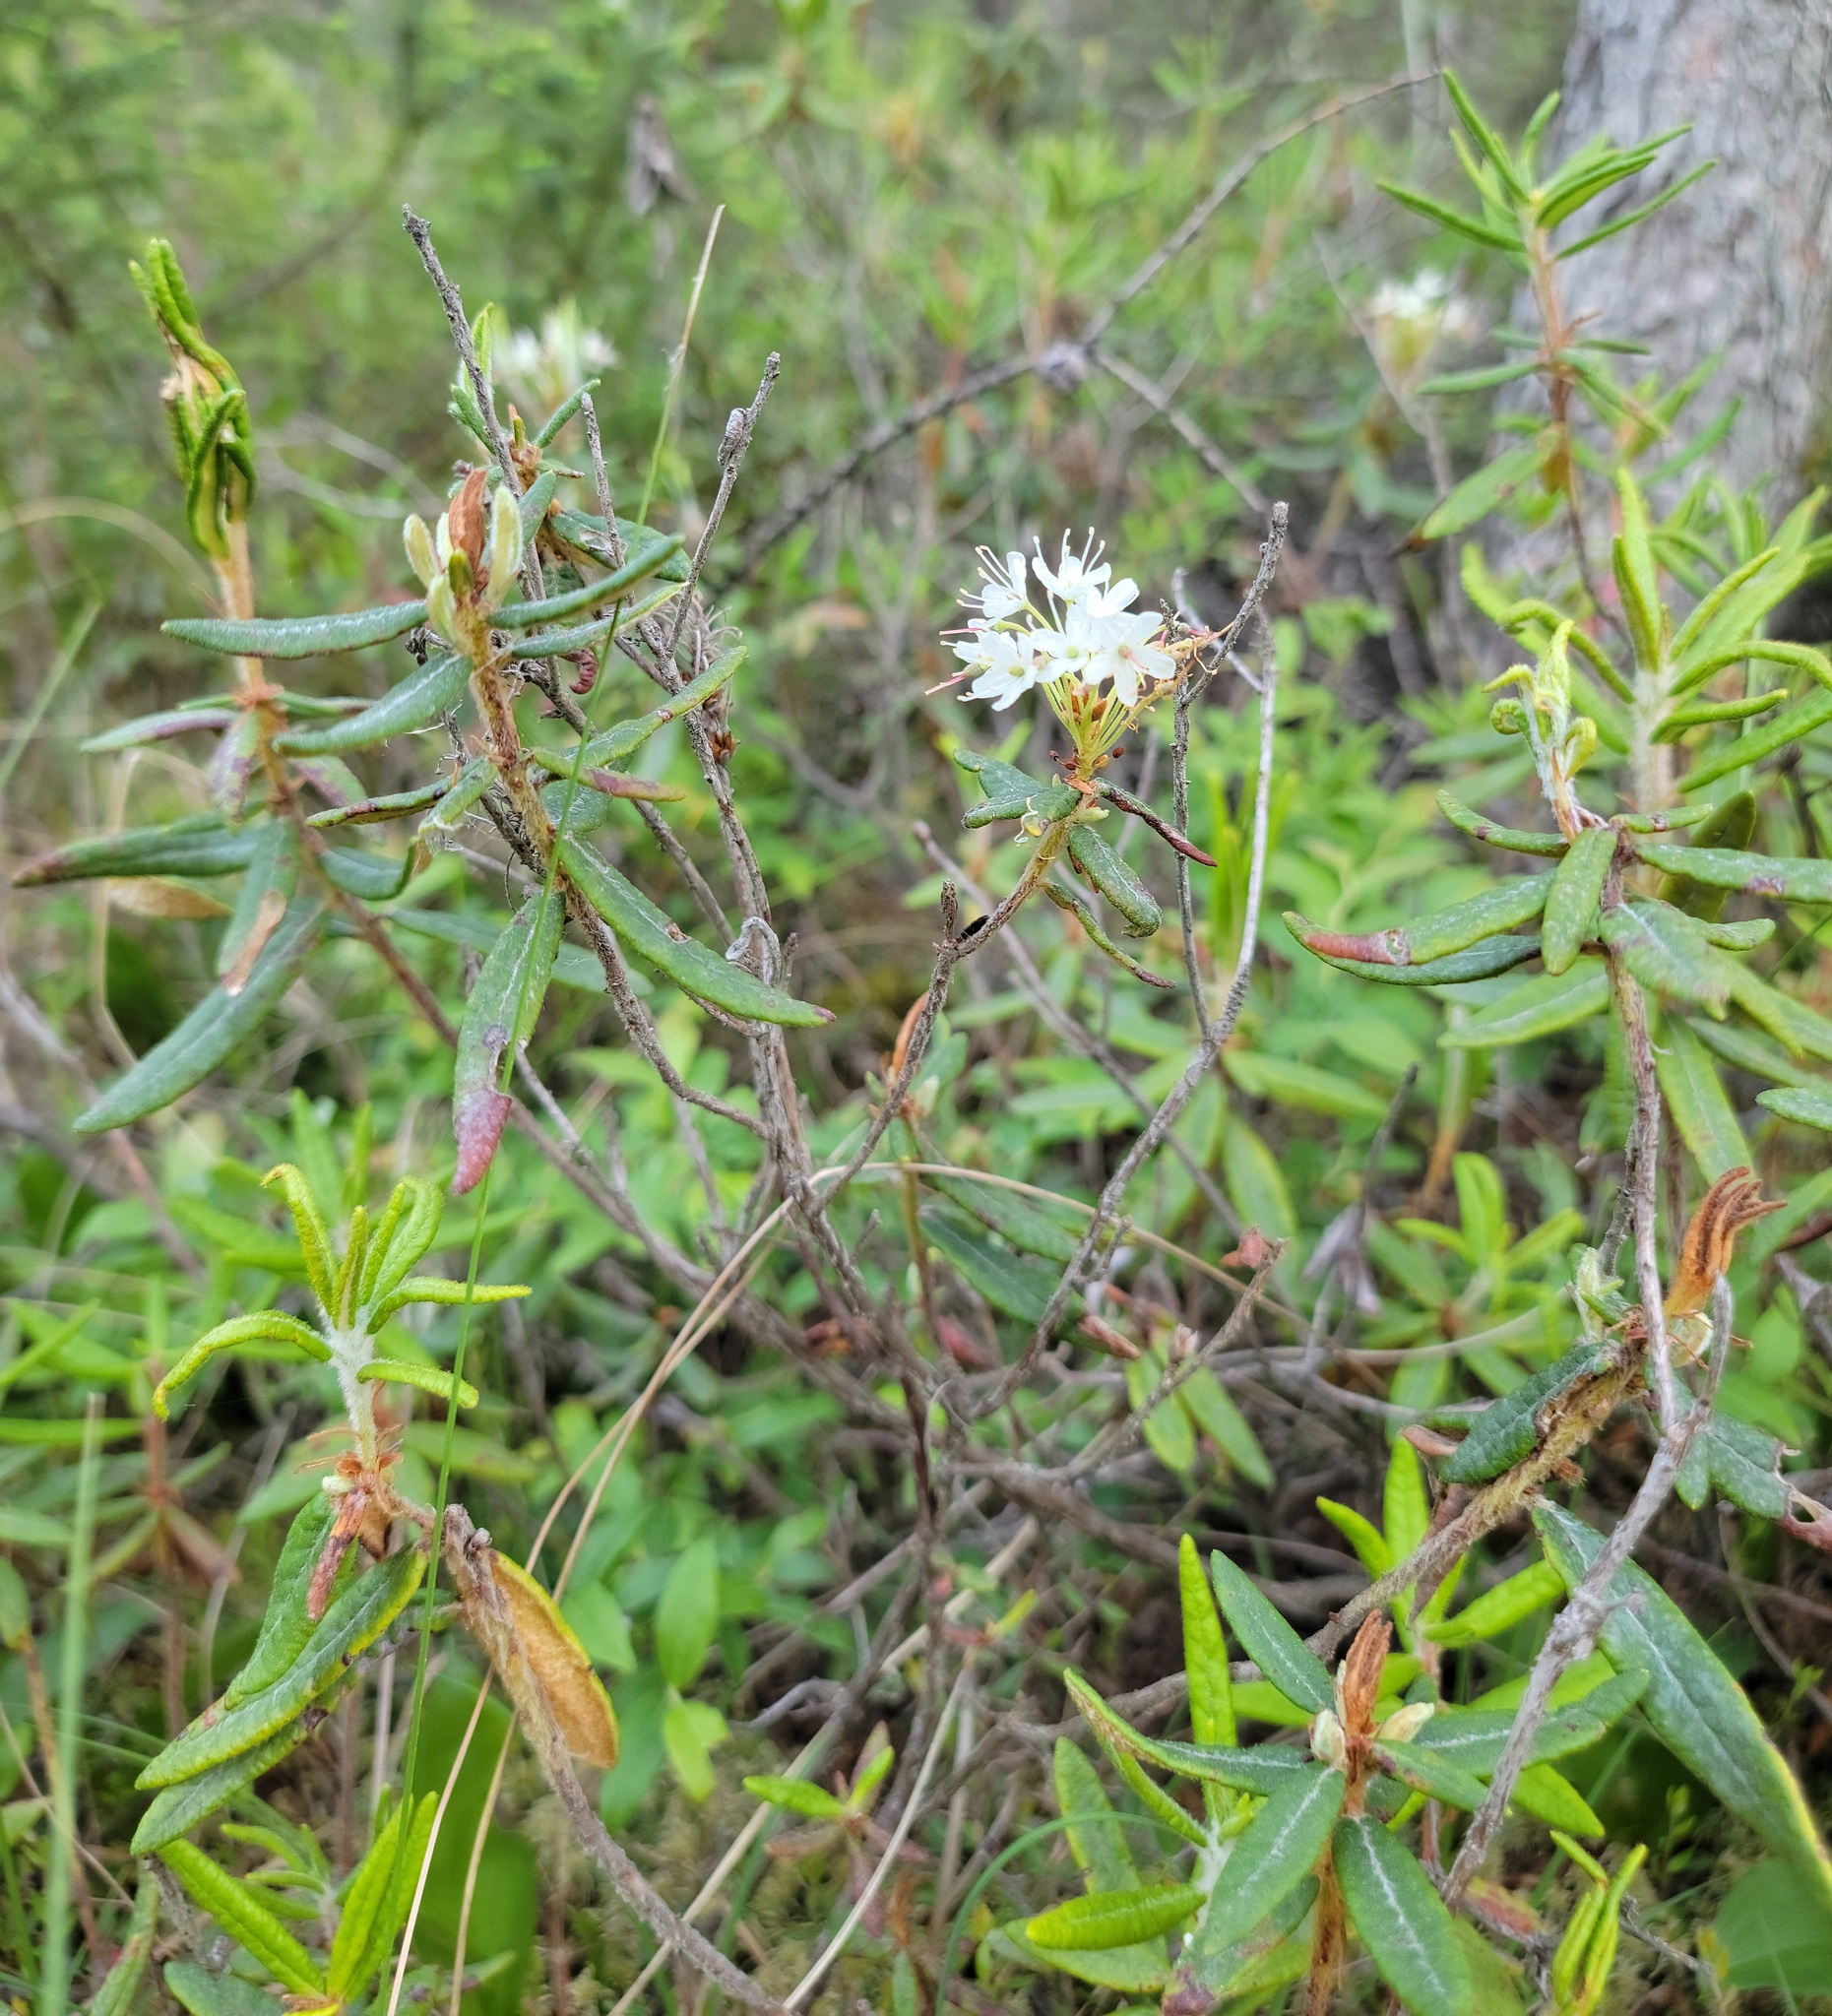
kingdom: Plantae
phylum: Tracheophyta
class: Magnoliopsida
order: Ericales
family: Ericaceae
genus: Rhododendron
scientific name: Rhododendron groenlandicum
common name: Bog labrador tea
